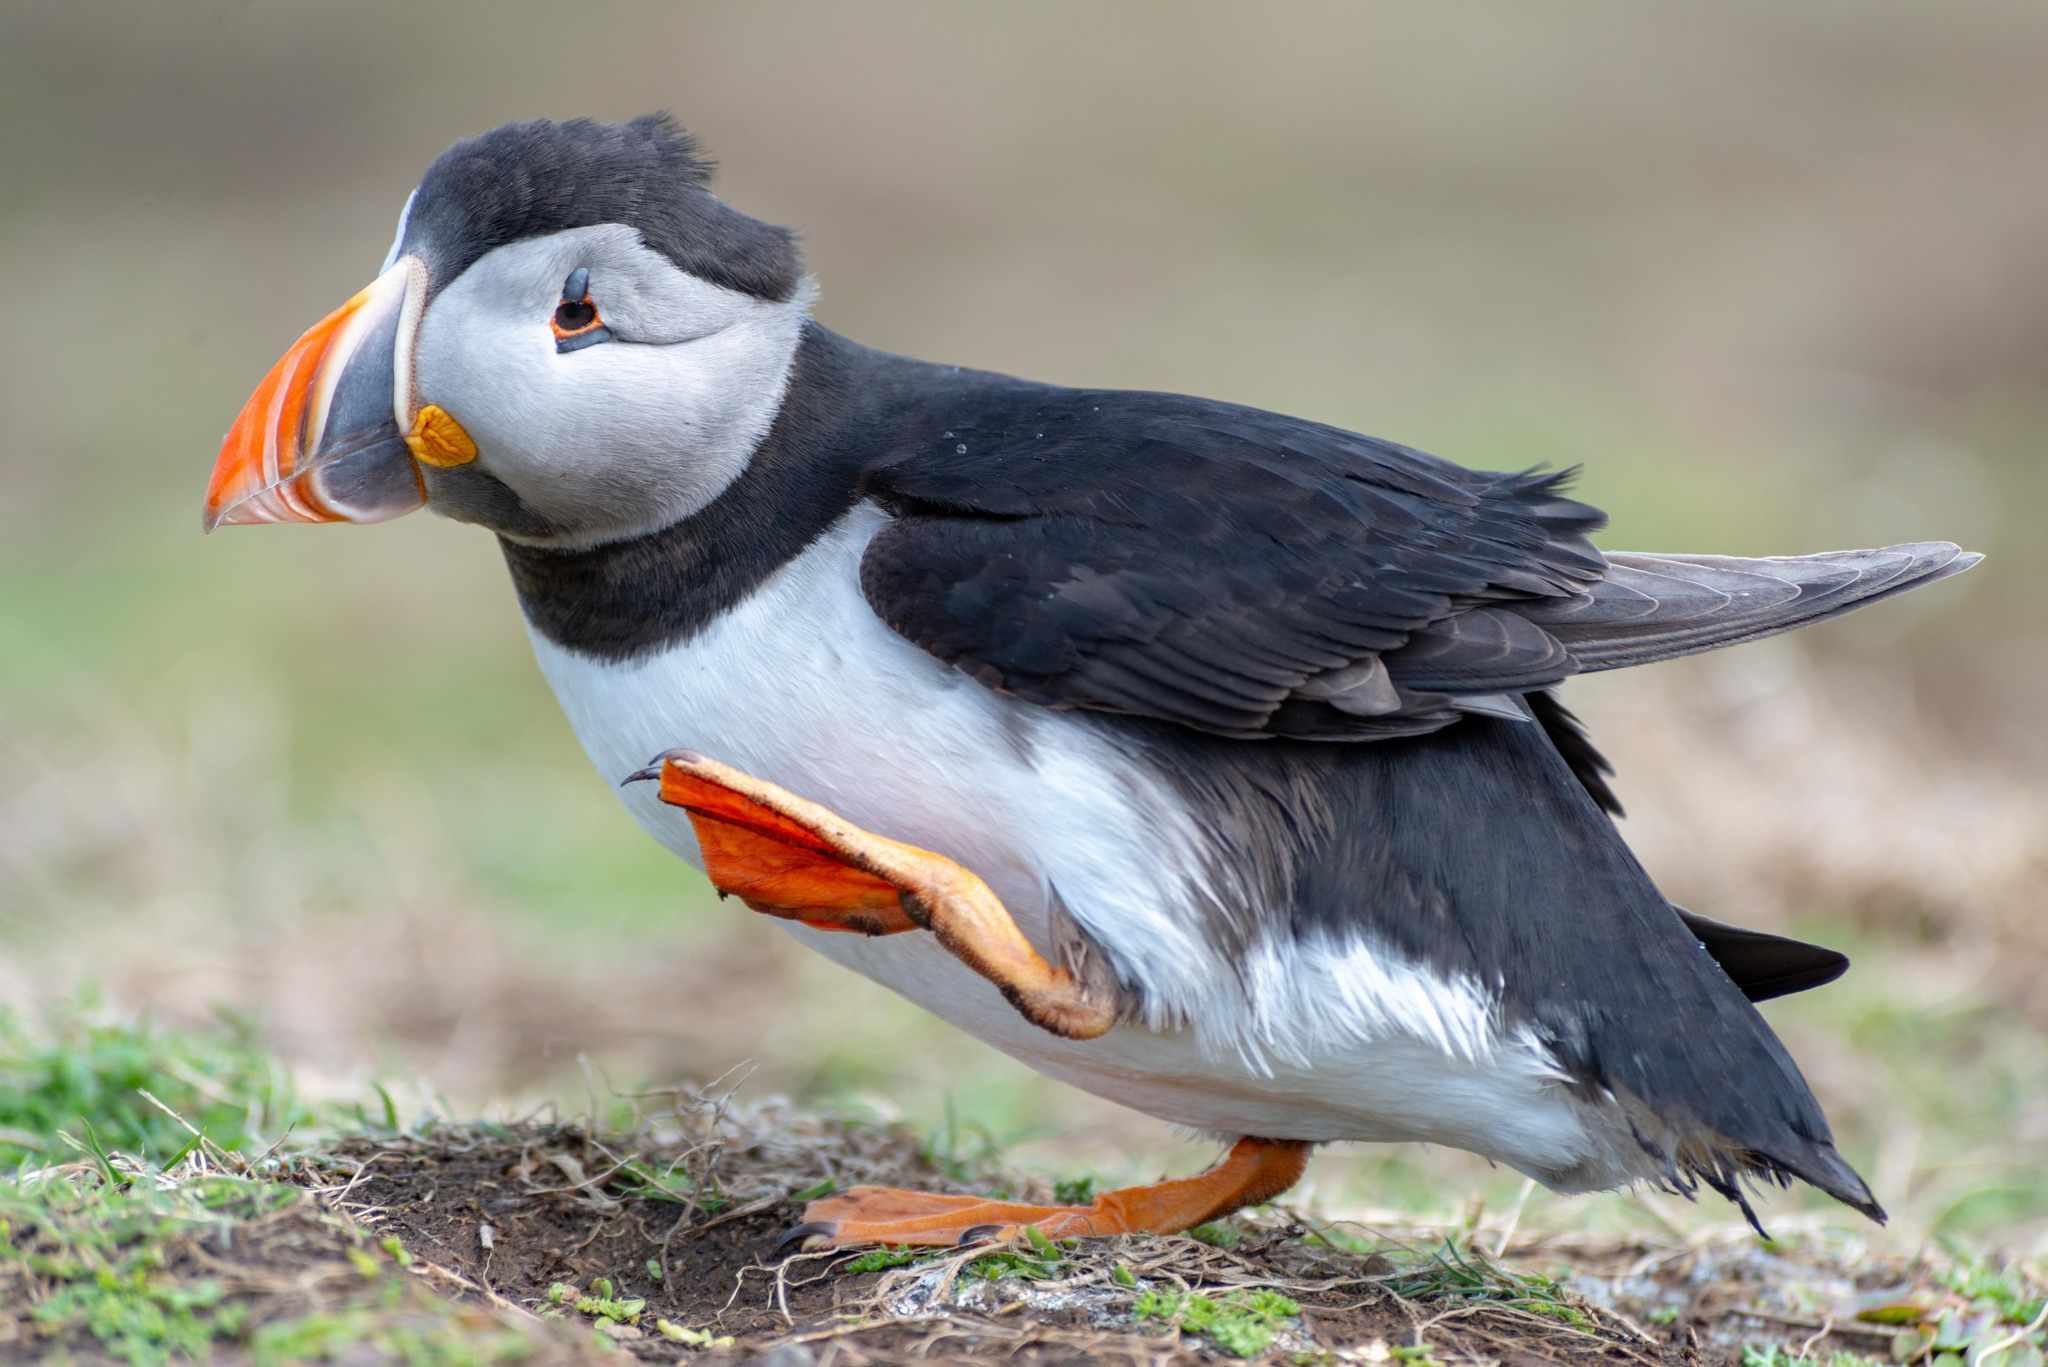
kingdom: Animalia
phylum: Chordata
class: Aves
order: Charadriiformes
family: Alcidae
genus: Fratercula
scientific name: Fratercula arctica
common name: Atlantic puffin
